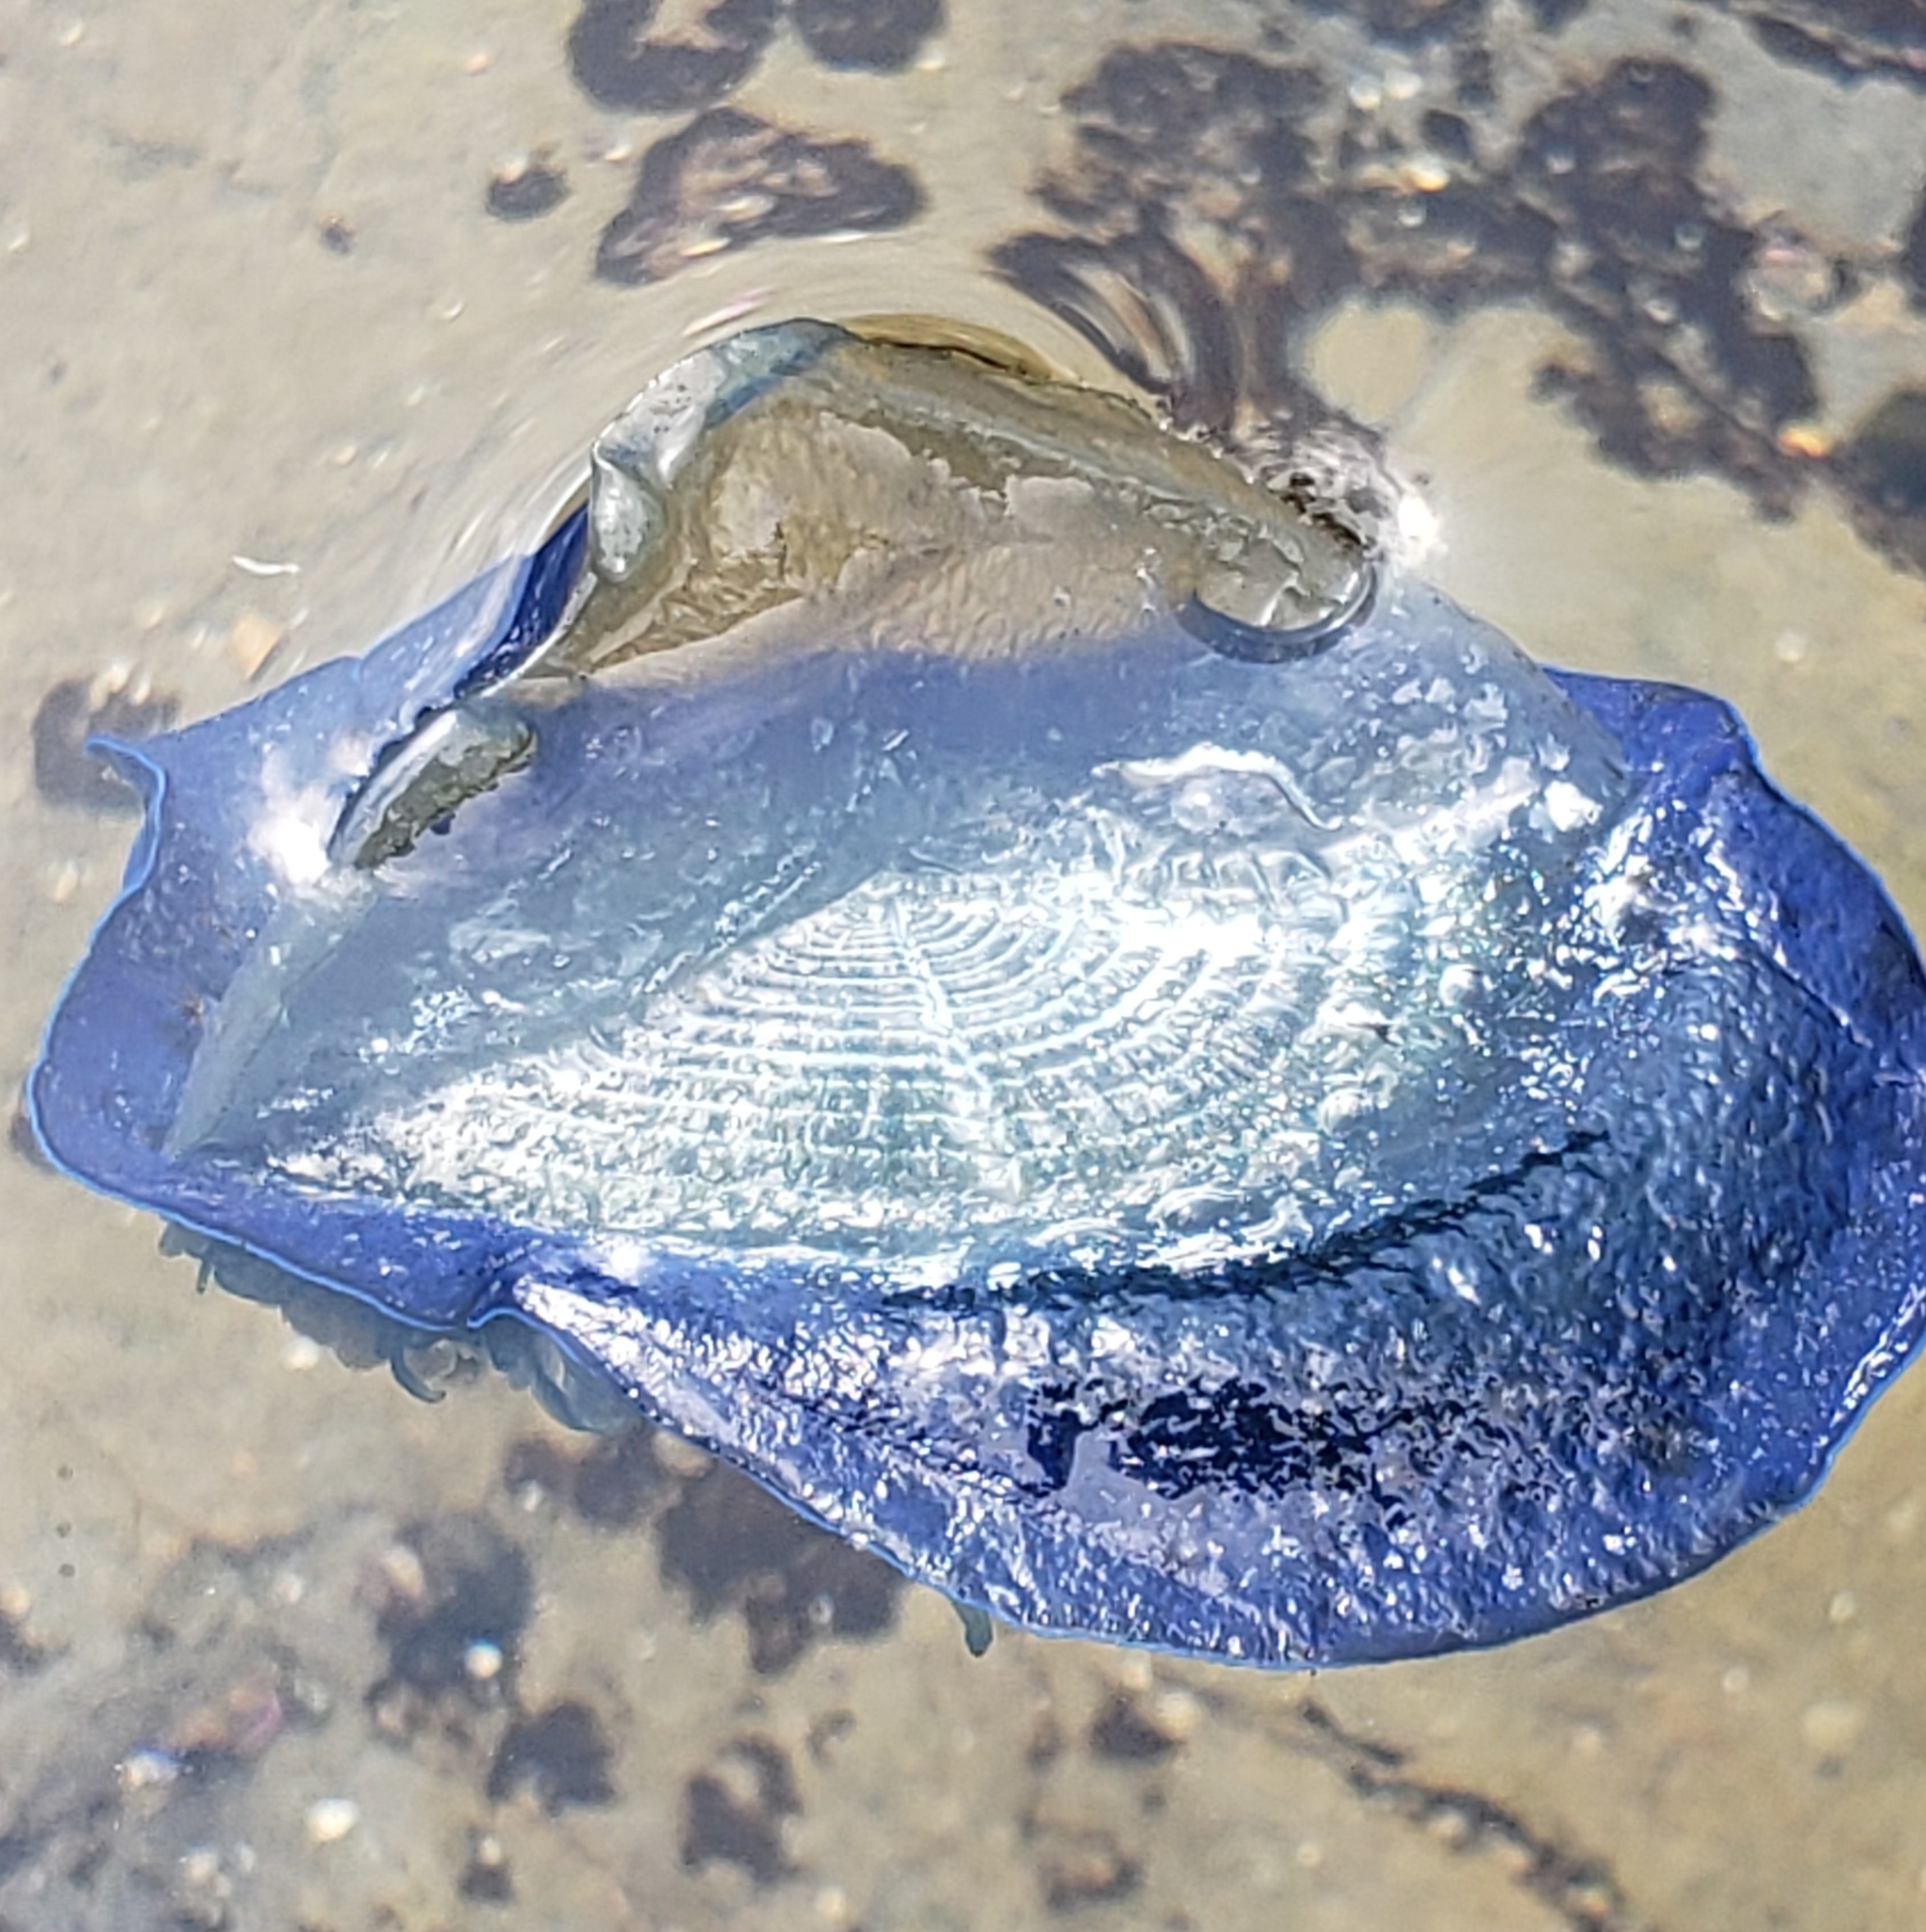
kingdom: Animalia
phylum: Cnidaria
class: Hydrozoa
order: Anthoathecata
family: Porpitidae
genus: Velella
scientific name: Velella velella
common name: By-the-wind-sailor
